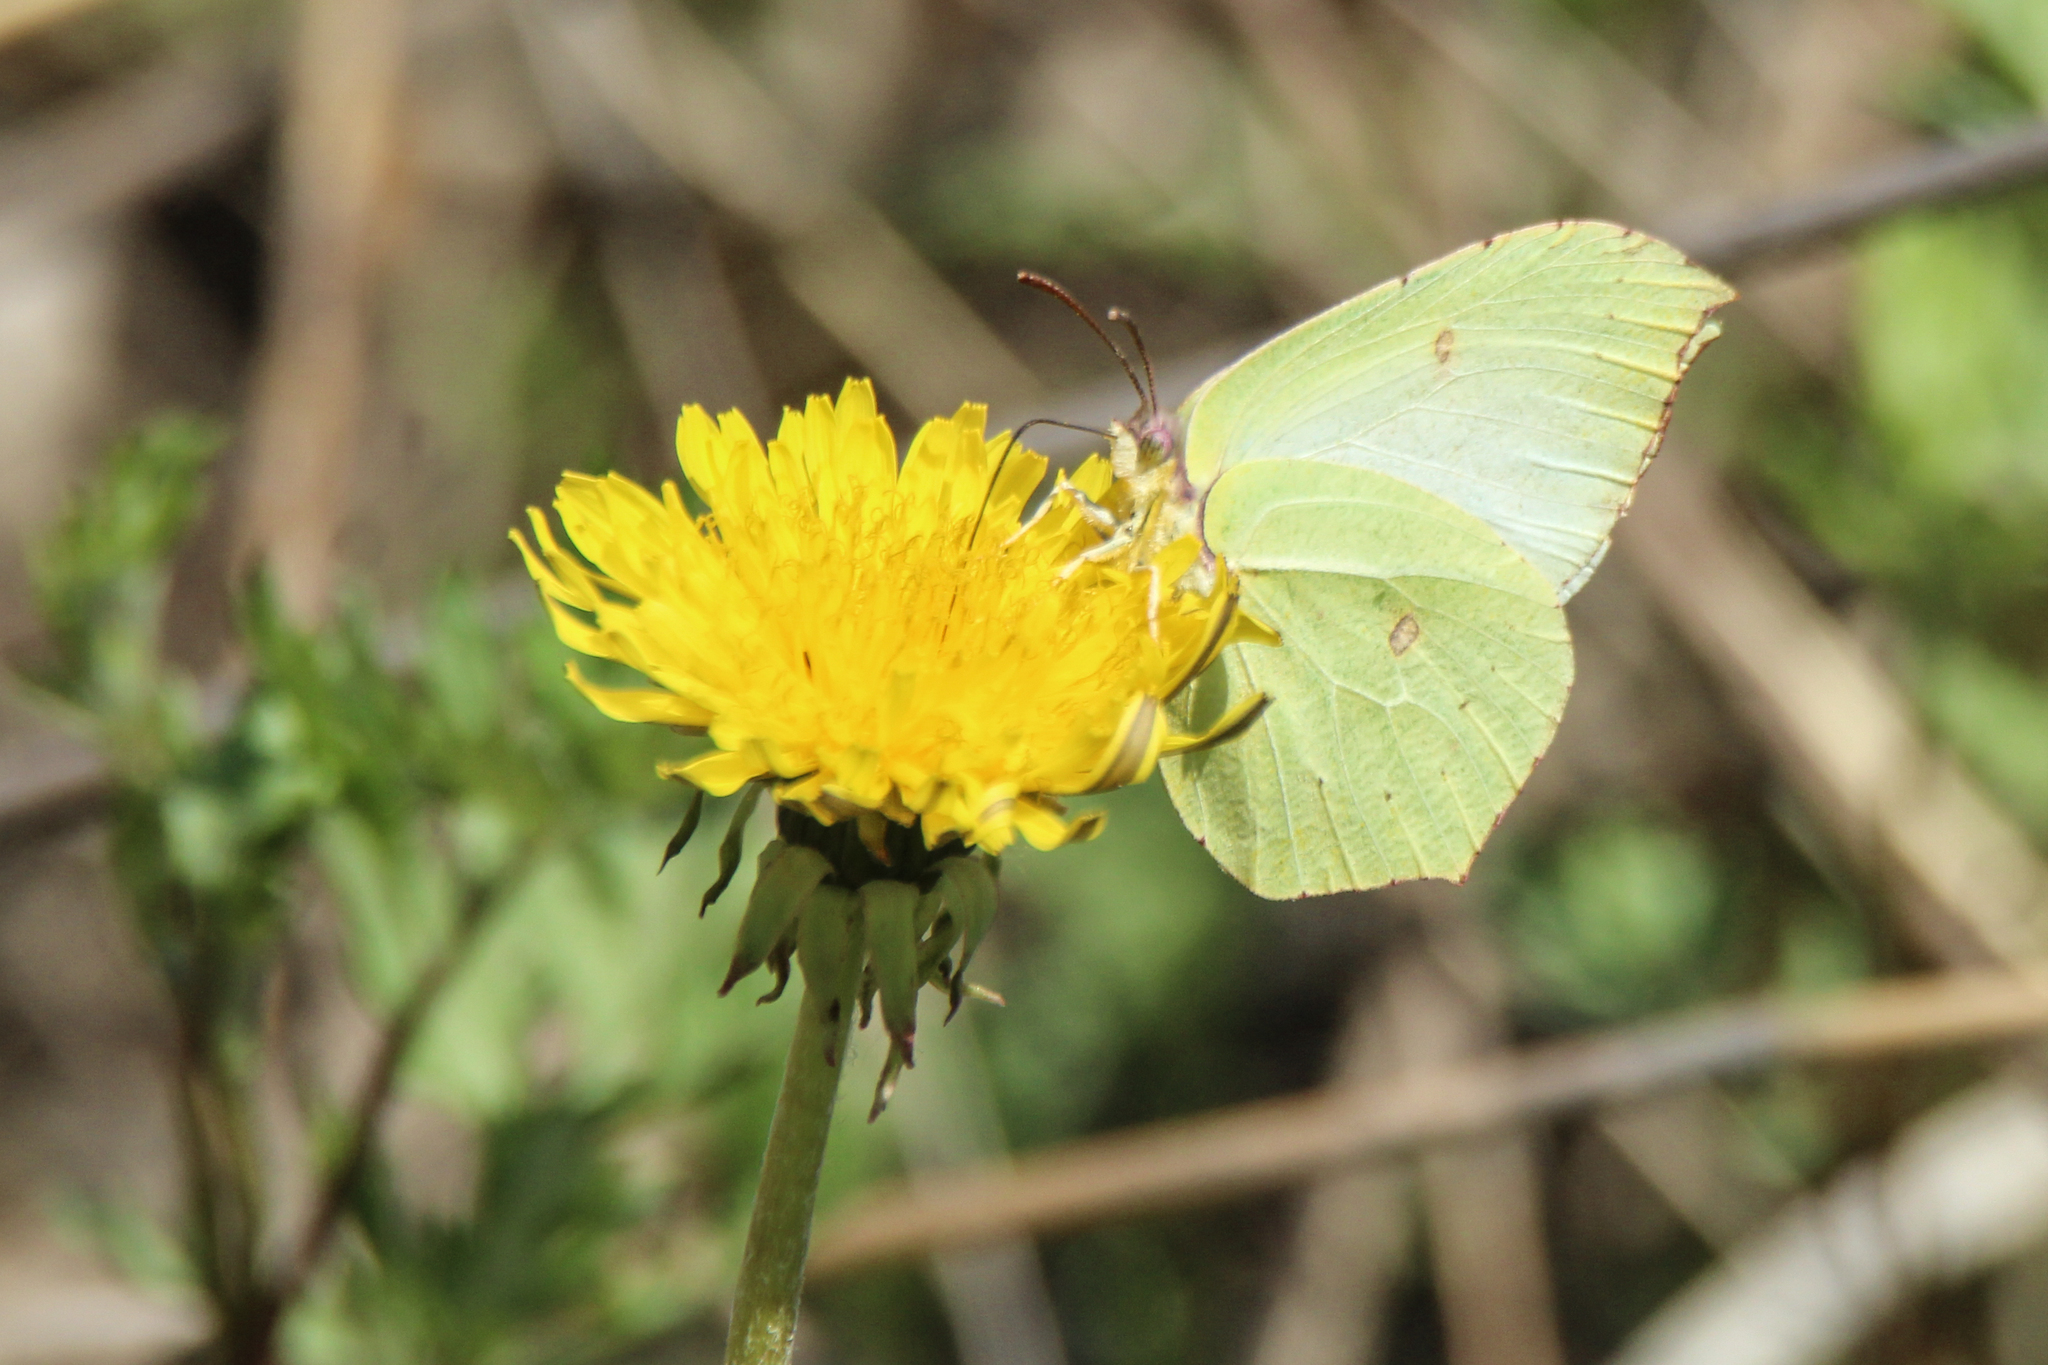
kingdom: Animalia
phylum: Arthropoda
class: Insecta
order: Lepidoptera
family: Pieridae
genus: Gonepteryx
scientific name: Gonepteryx aspasia
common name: Lesser brimstone
